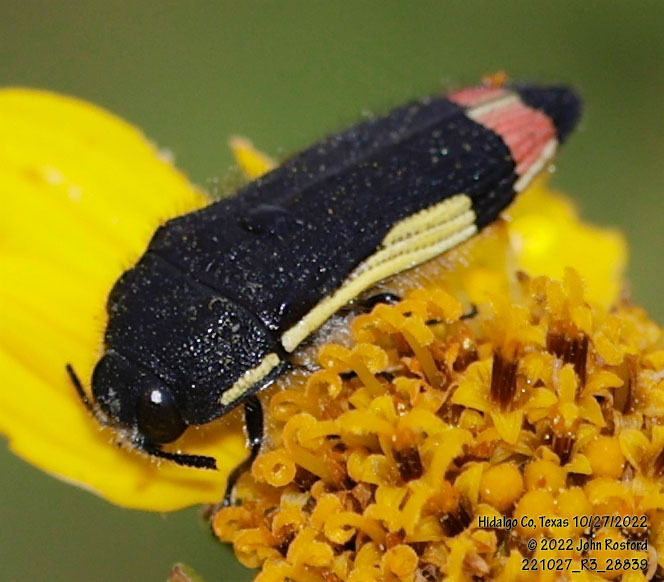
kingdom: Animalia
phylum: Arthropoda
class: Insecta
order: Coleoptera
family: Buprestidae
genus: Acmaeodera
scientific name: Acmaeodera flavomarginata
